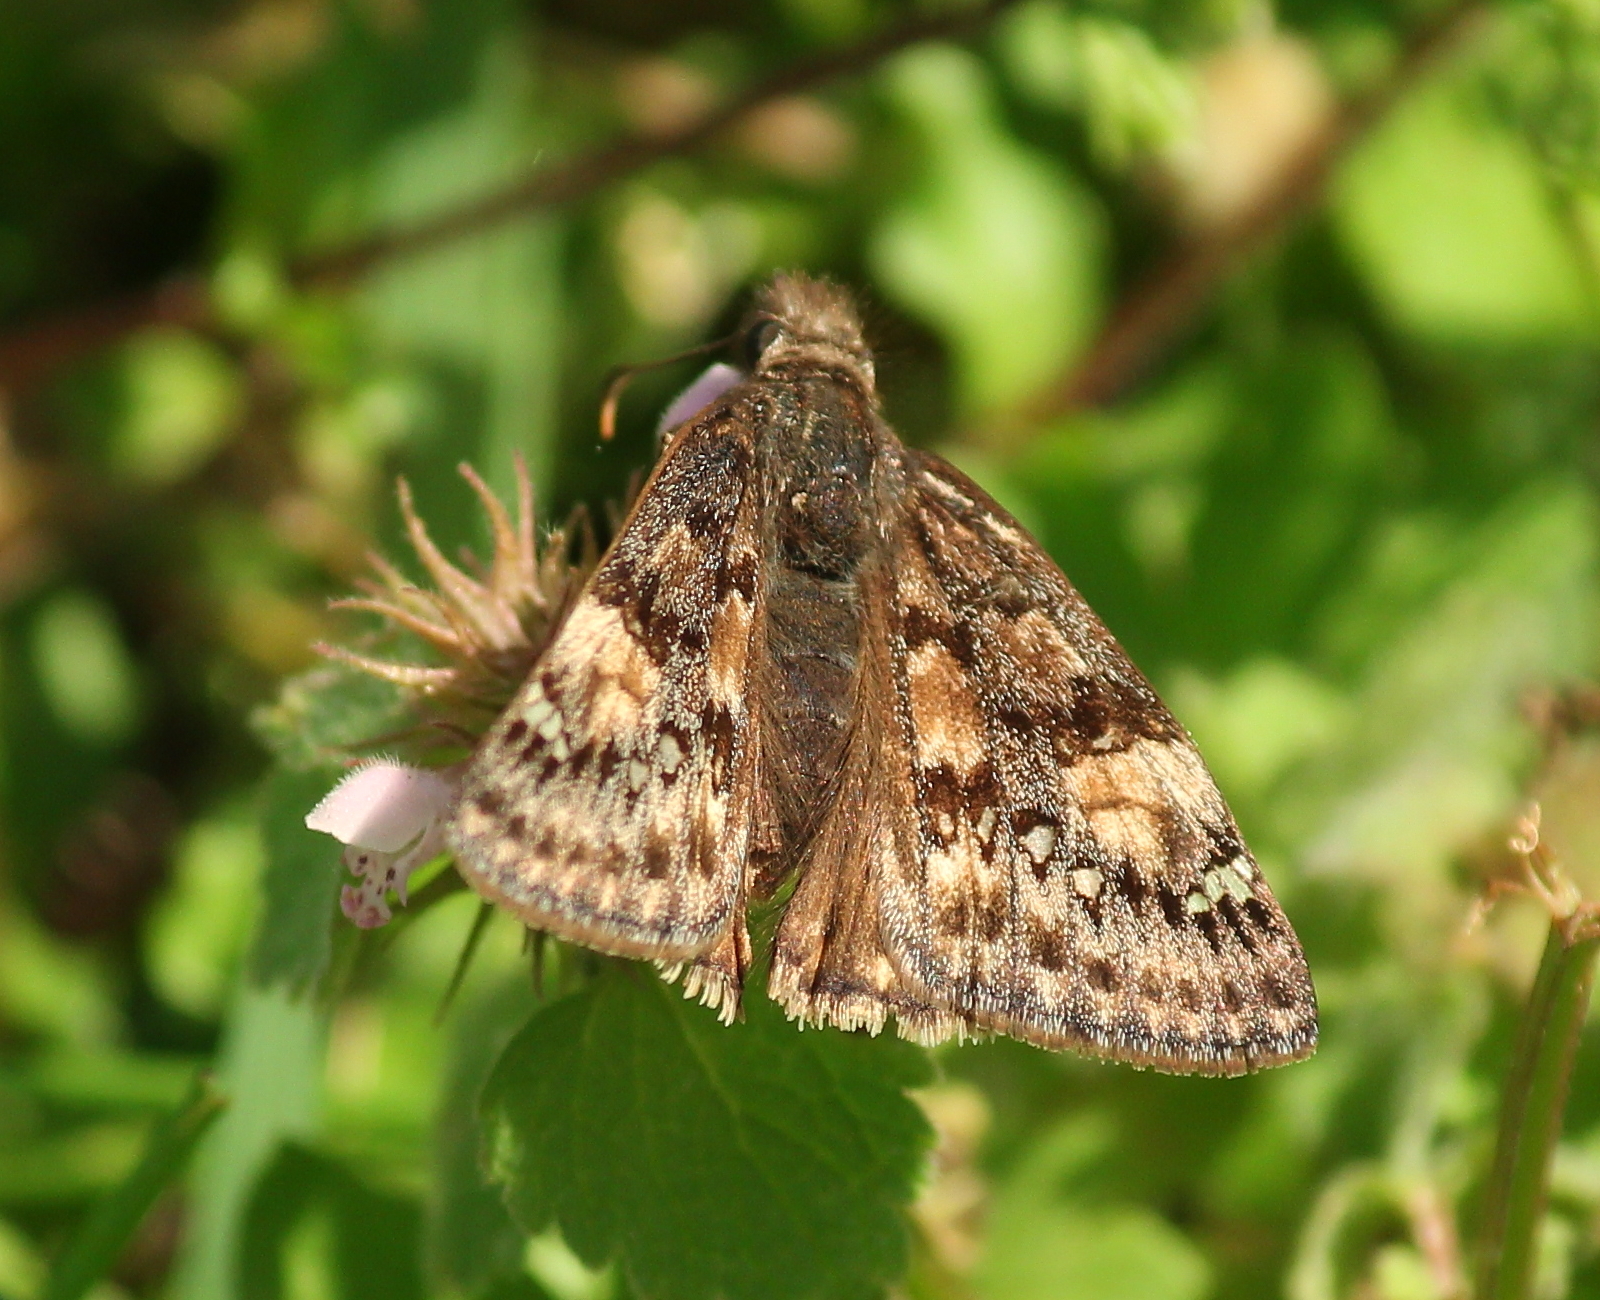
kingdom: Animalia
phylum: Arthropoda
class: Insecta
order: Lepidoptera
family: Hesperiidae
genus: Erynnis
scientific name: Erynnis horatius
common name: Horace's duskywing
